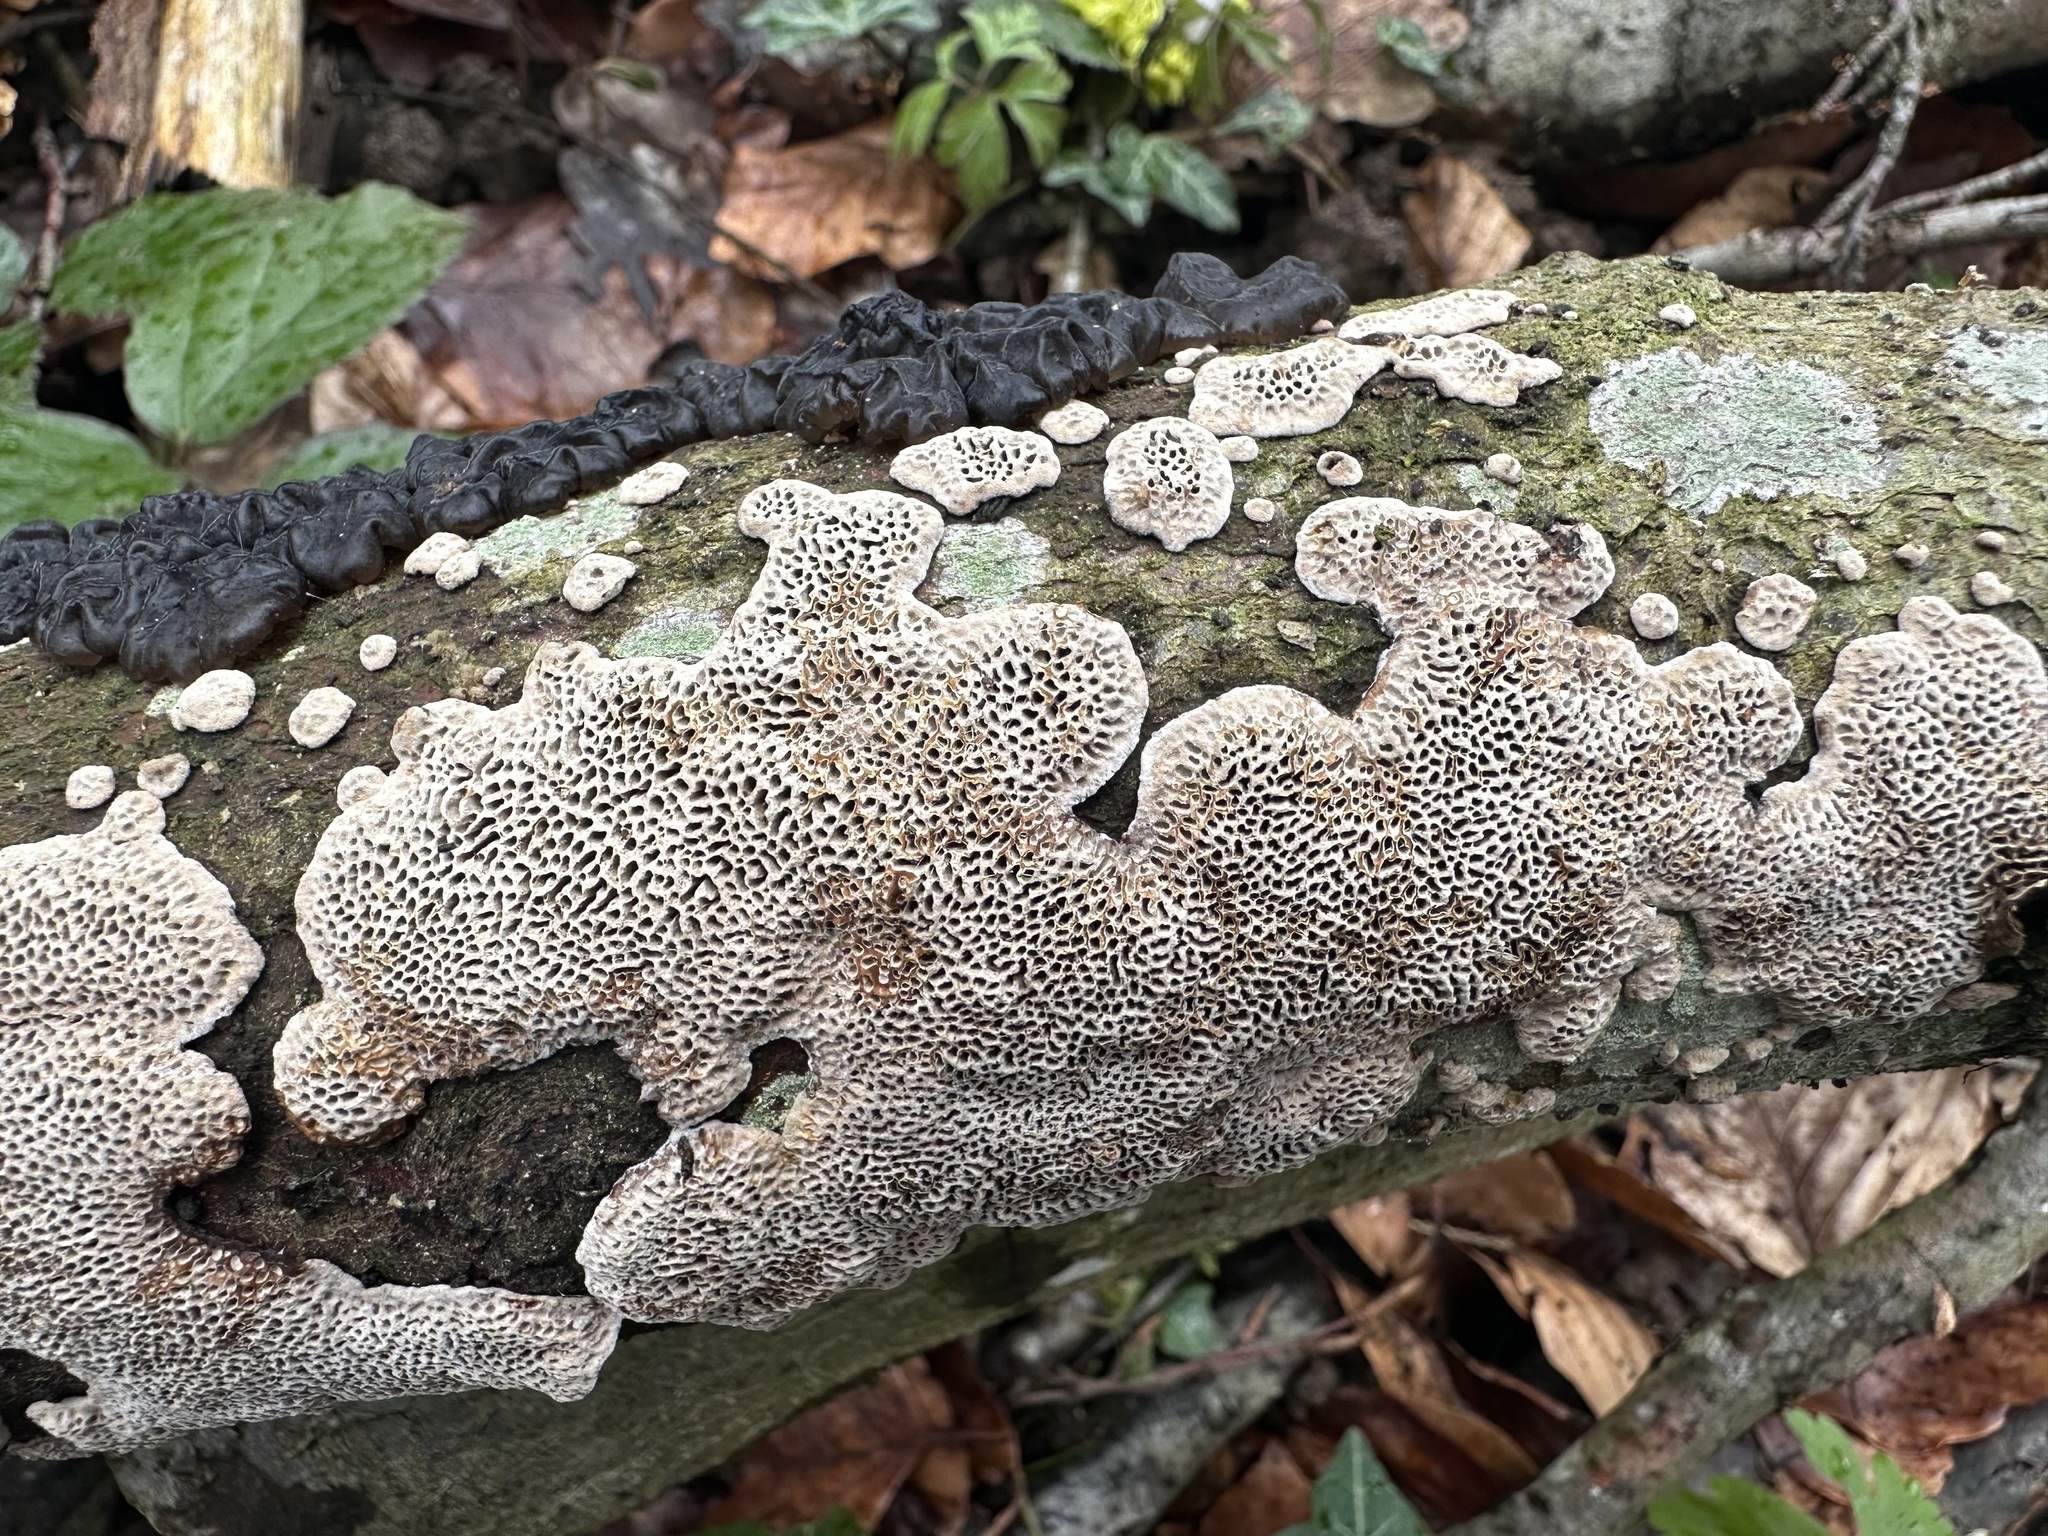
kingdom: Fungi
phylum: Basidiomycota
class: Agaricomycetes
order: Polyporales
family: Polyporaceae
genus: Podofomes
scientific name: Podofomes mollis
